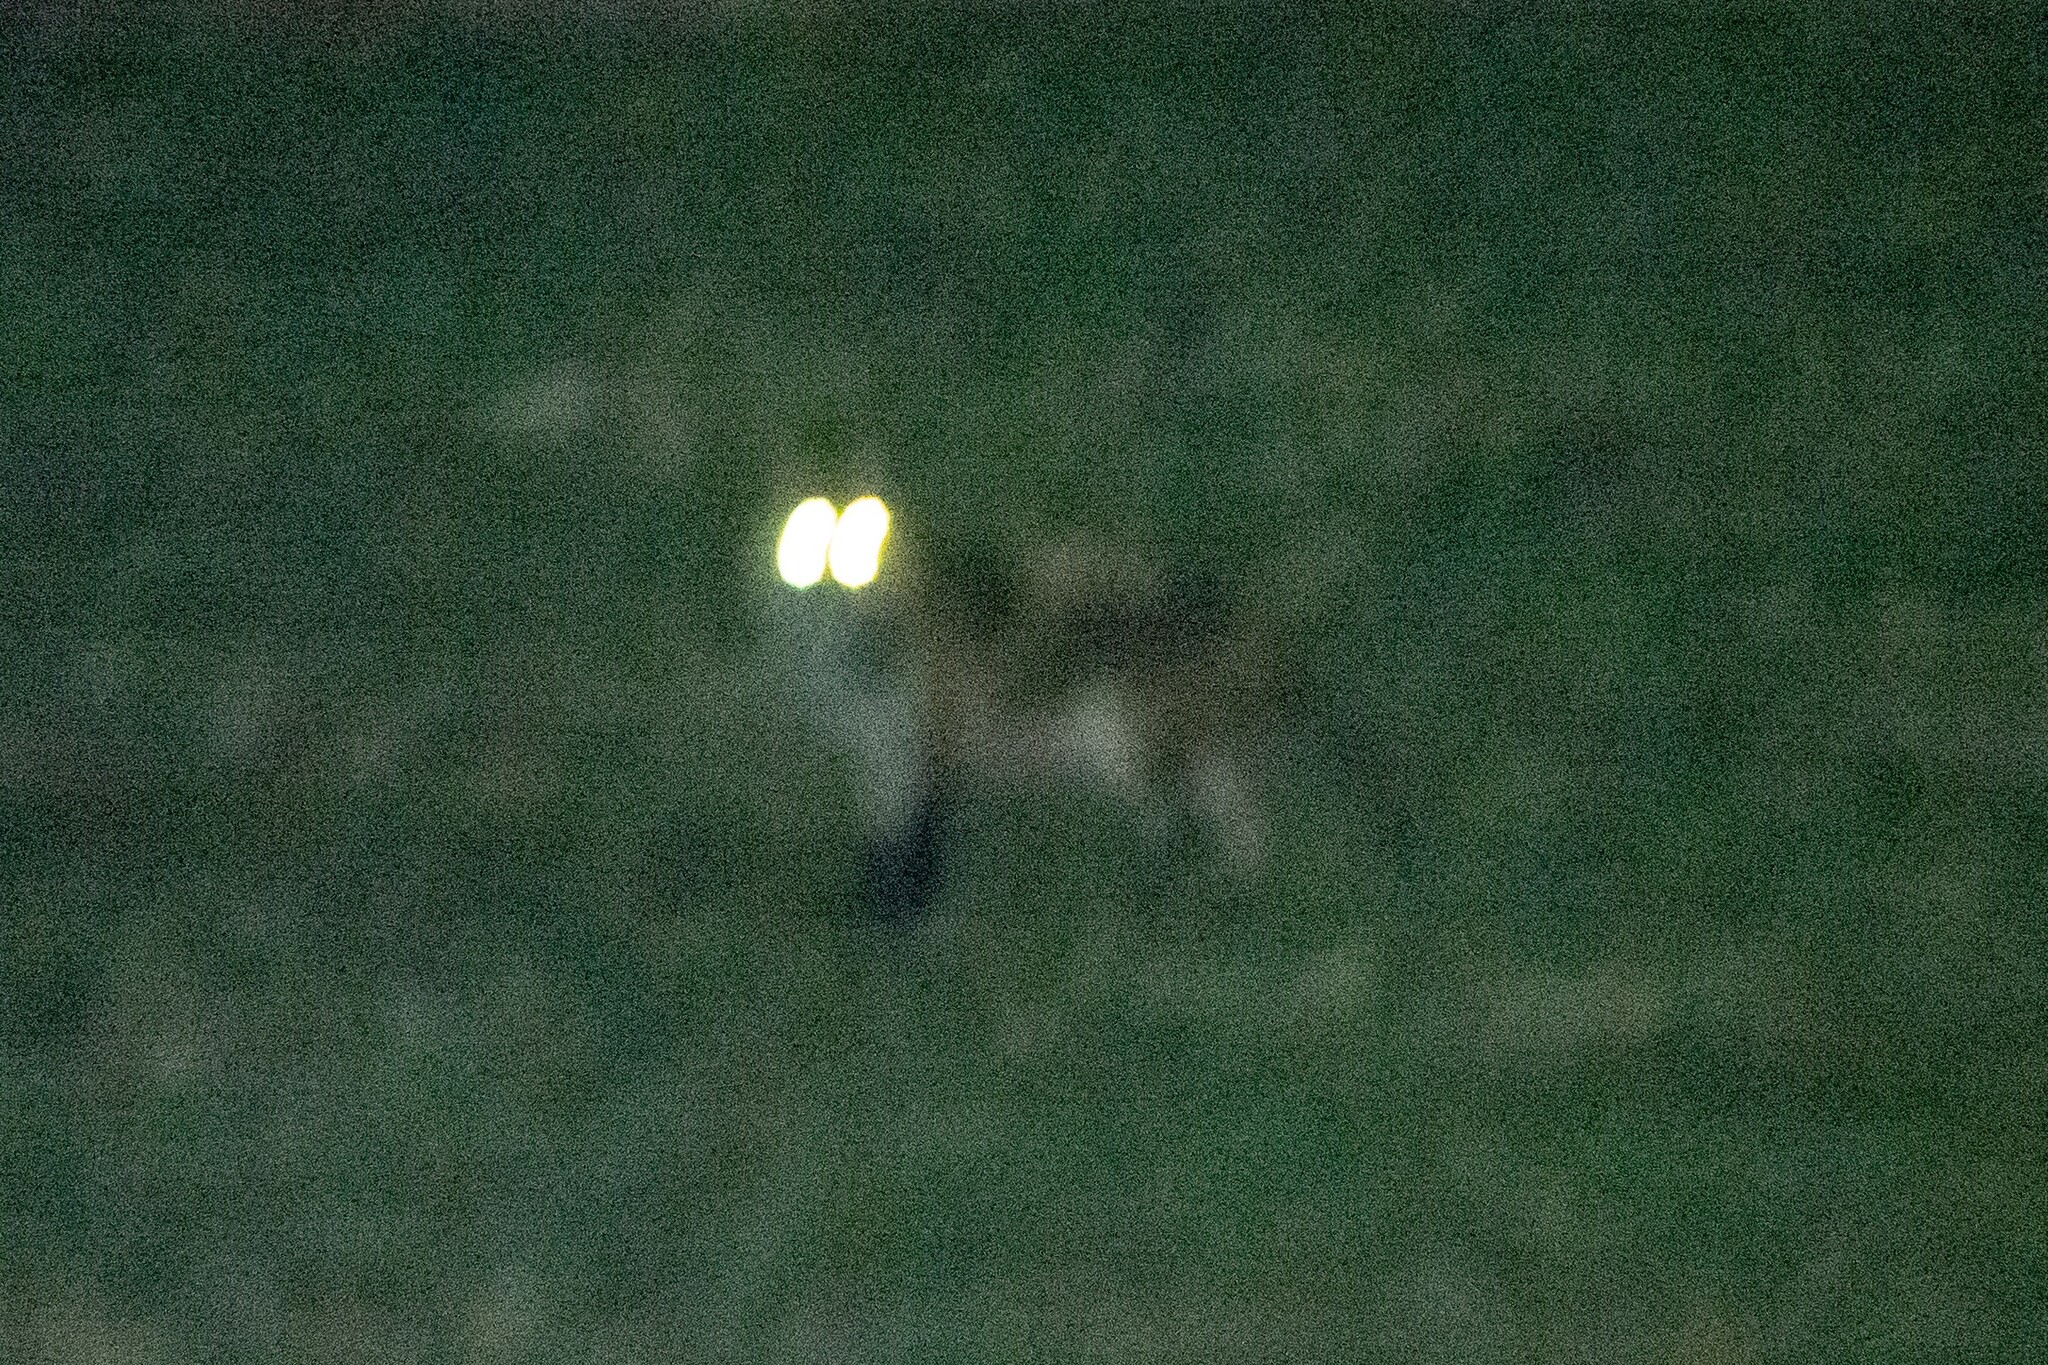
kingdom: Animalia
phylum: Chordata
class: Mammalia
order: Carnivora
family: Felidae
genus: Felis
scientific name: Felis catus
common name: Domestic cat
